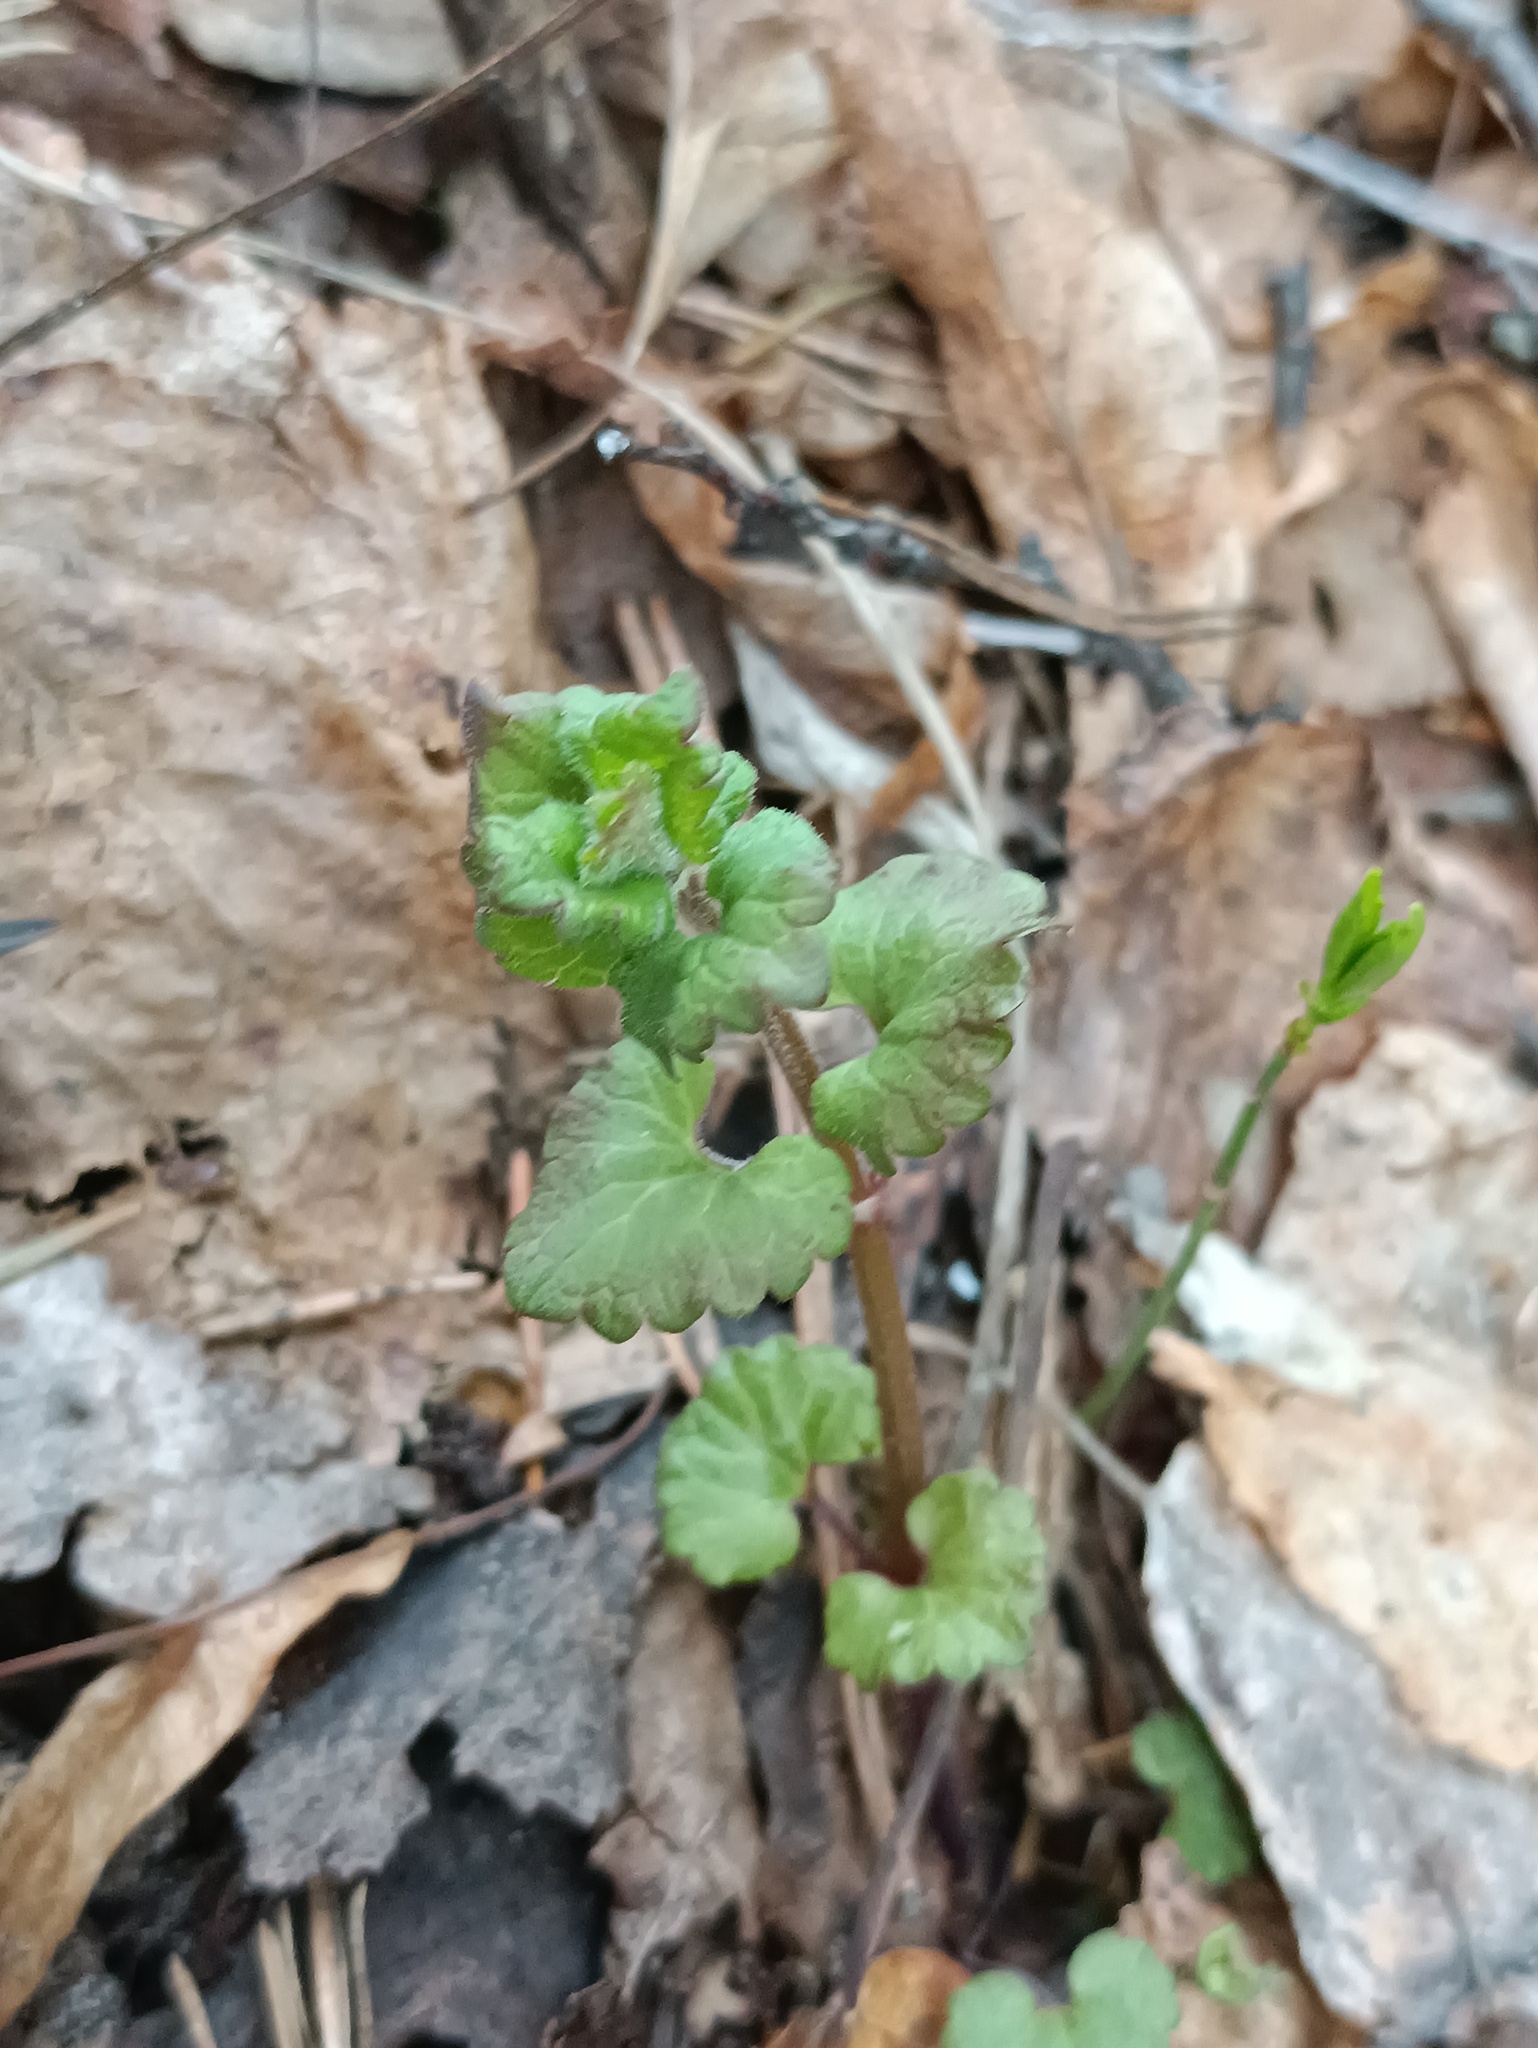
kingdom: Plantae
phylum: Tracheophyta
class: Magnoliopsida
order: Lamiales
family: Lamiaceae
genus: Glechoma
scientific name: Glechoma hederacea
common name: Ground ivy
